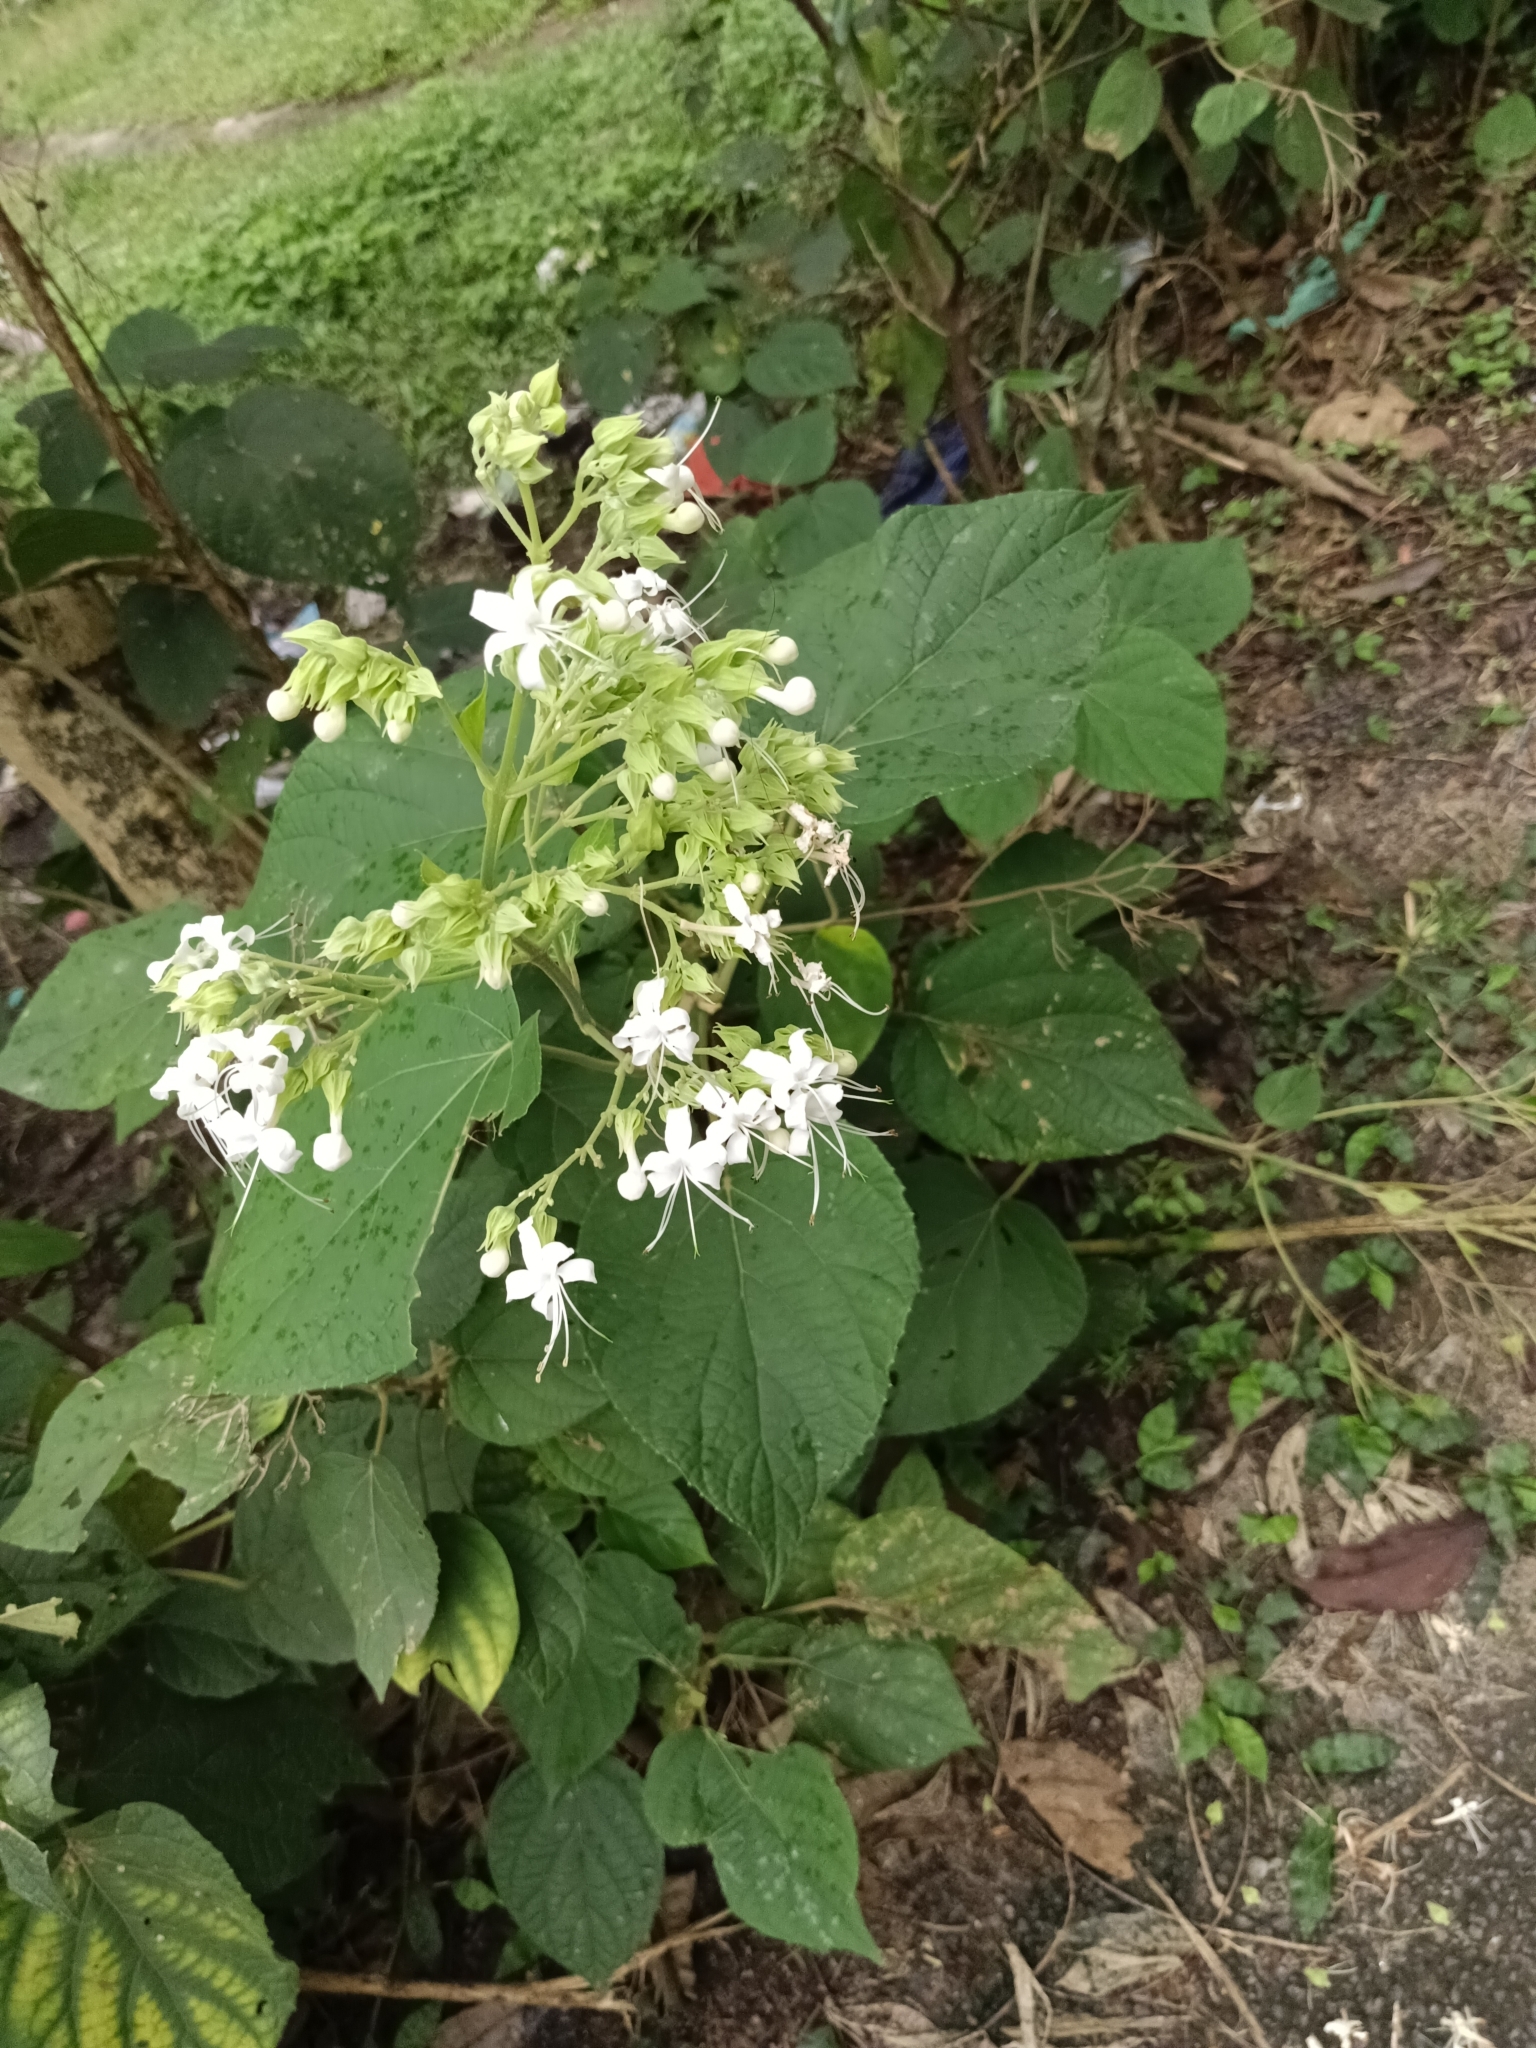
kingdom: Plantae
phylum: Tracheophyta
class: Magnoliopsida
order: Lamiales
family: Lamiaceae
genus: Clerodendrum
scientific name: Clerodendrum infortunatum
